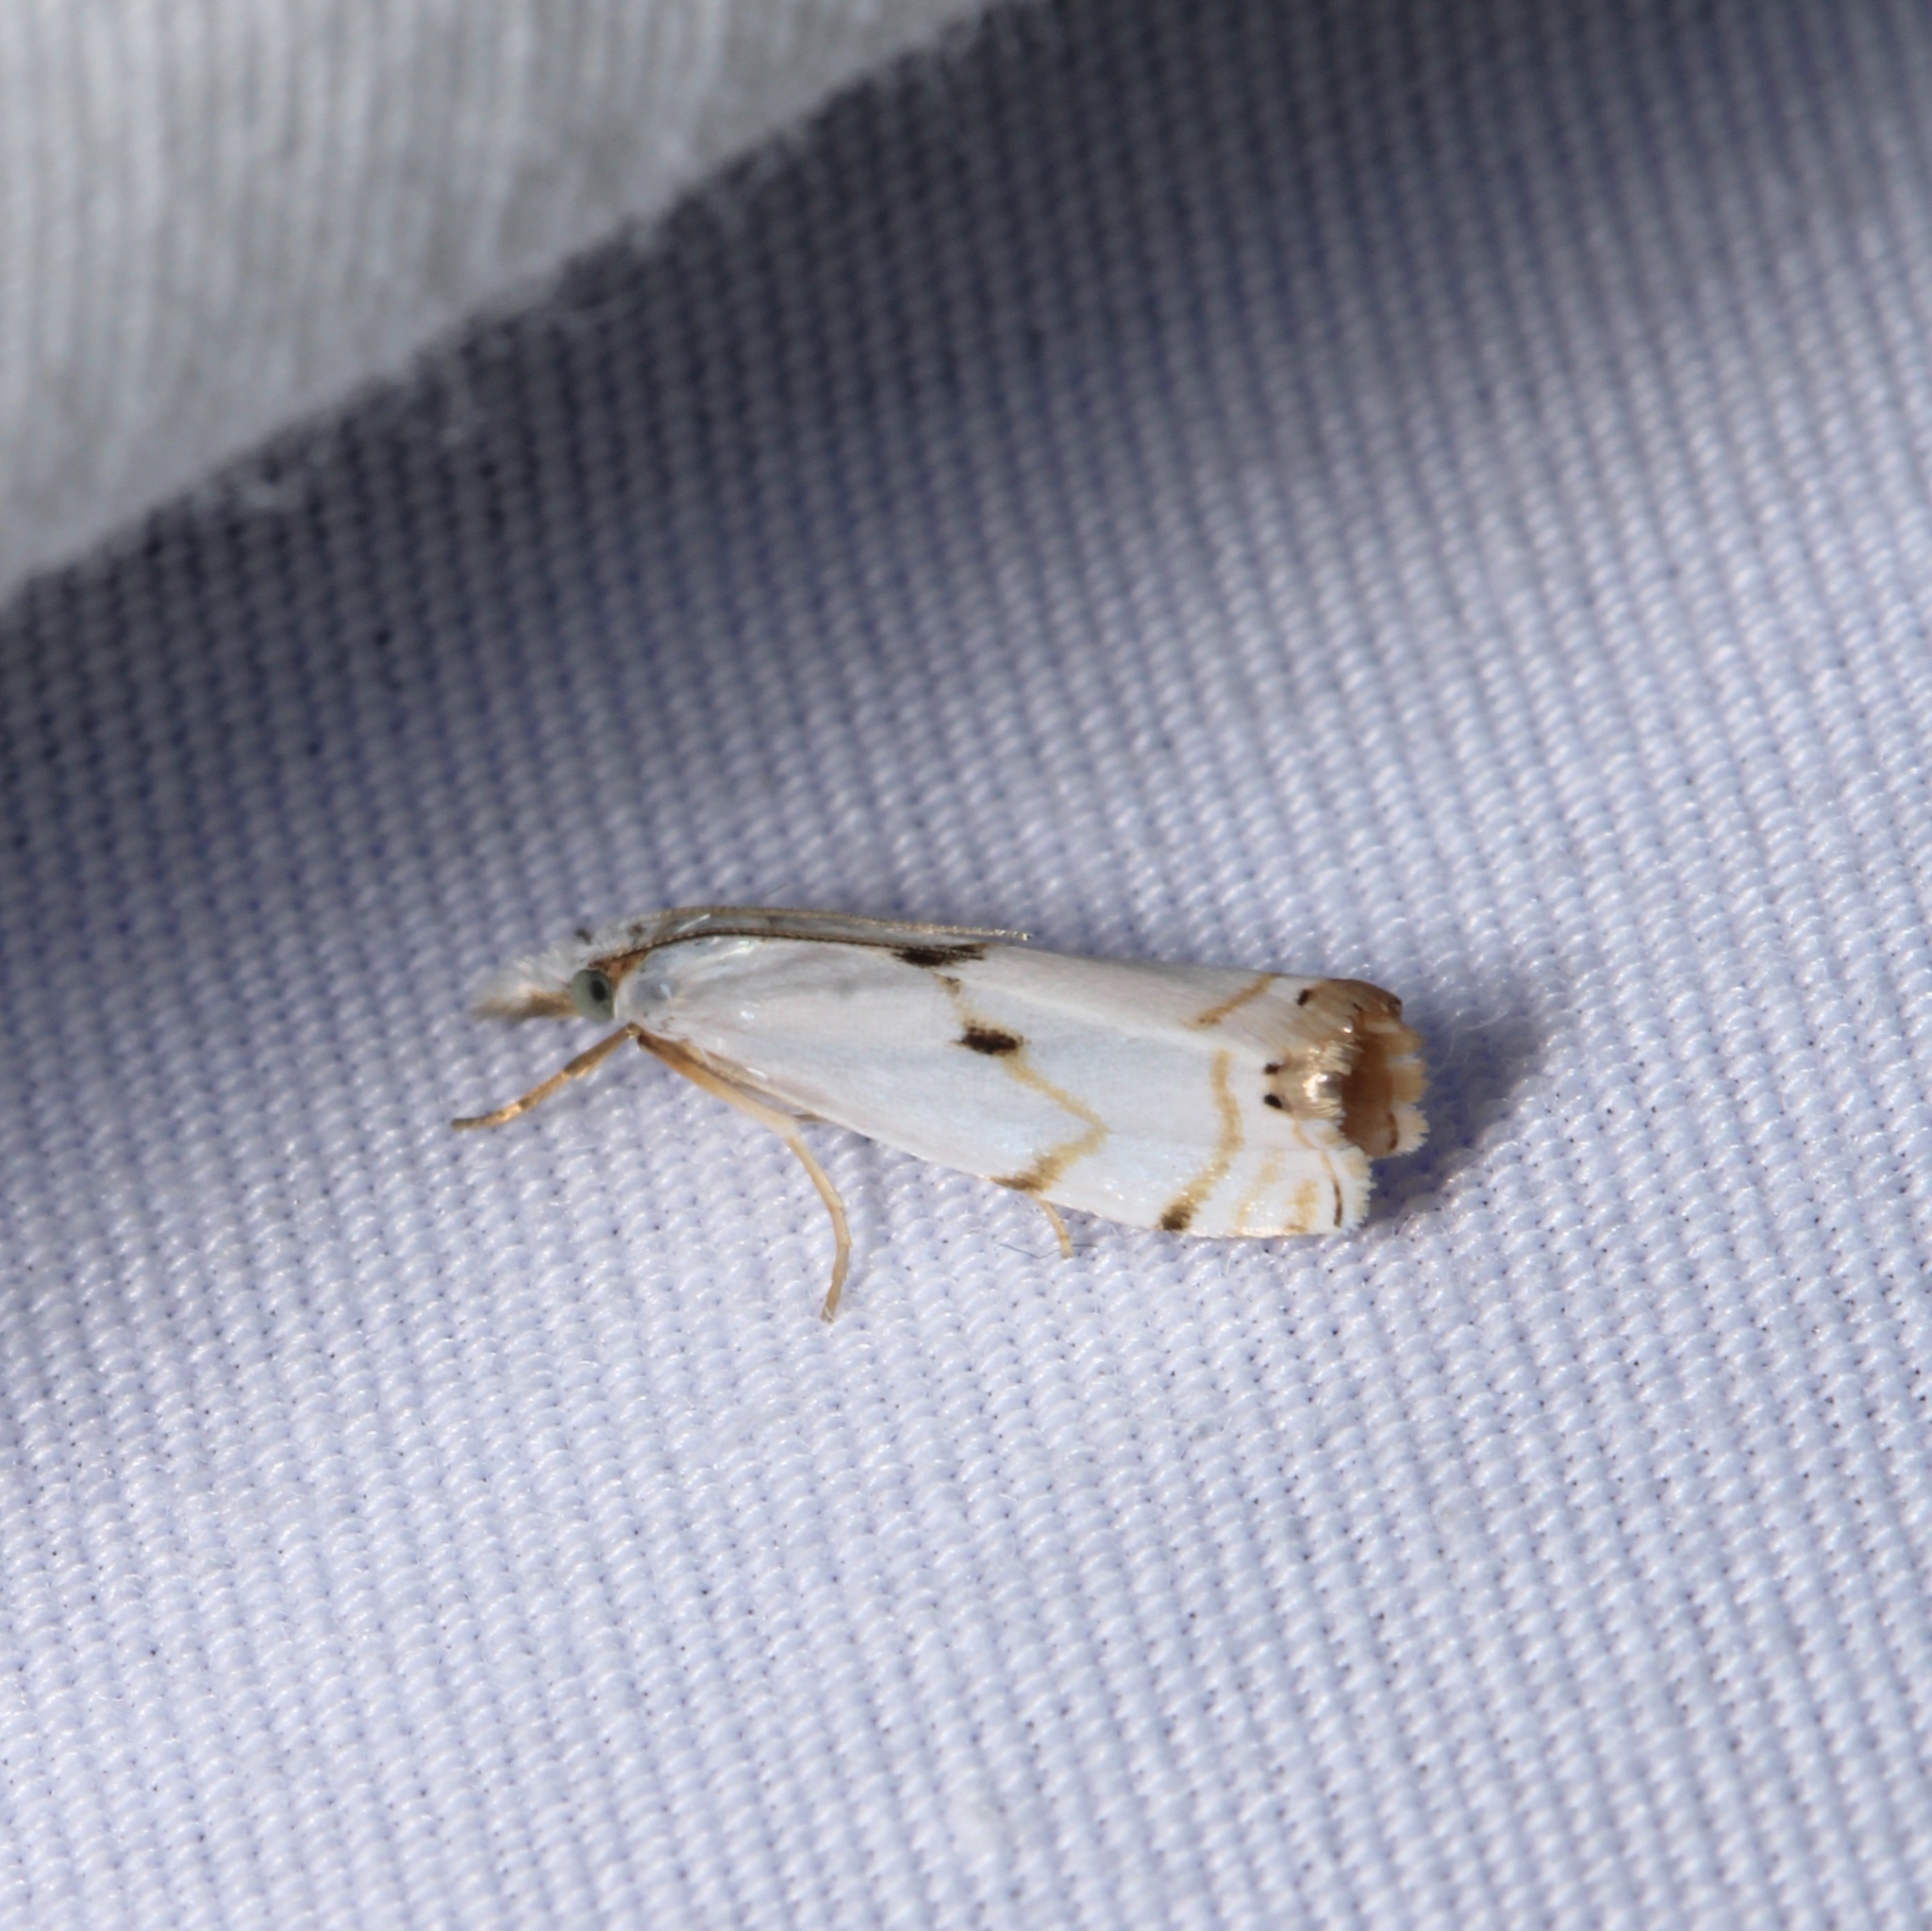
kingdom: Animalia
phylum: Arthropoda
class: Insecta
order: Lepidoptera
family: Crambidae
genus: Microcrambus
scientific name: Microcrambus biguttellus
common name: Gold-stripe grass-veneer moth
